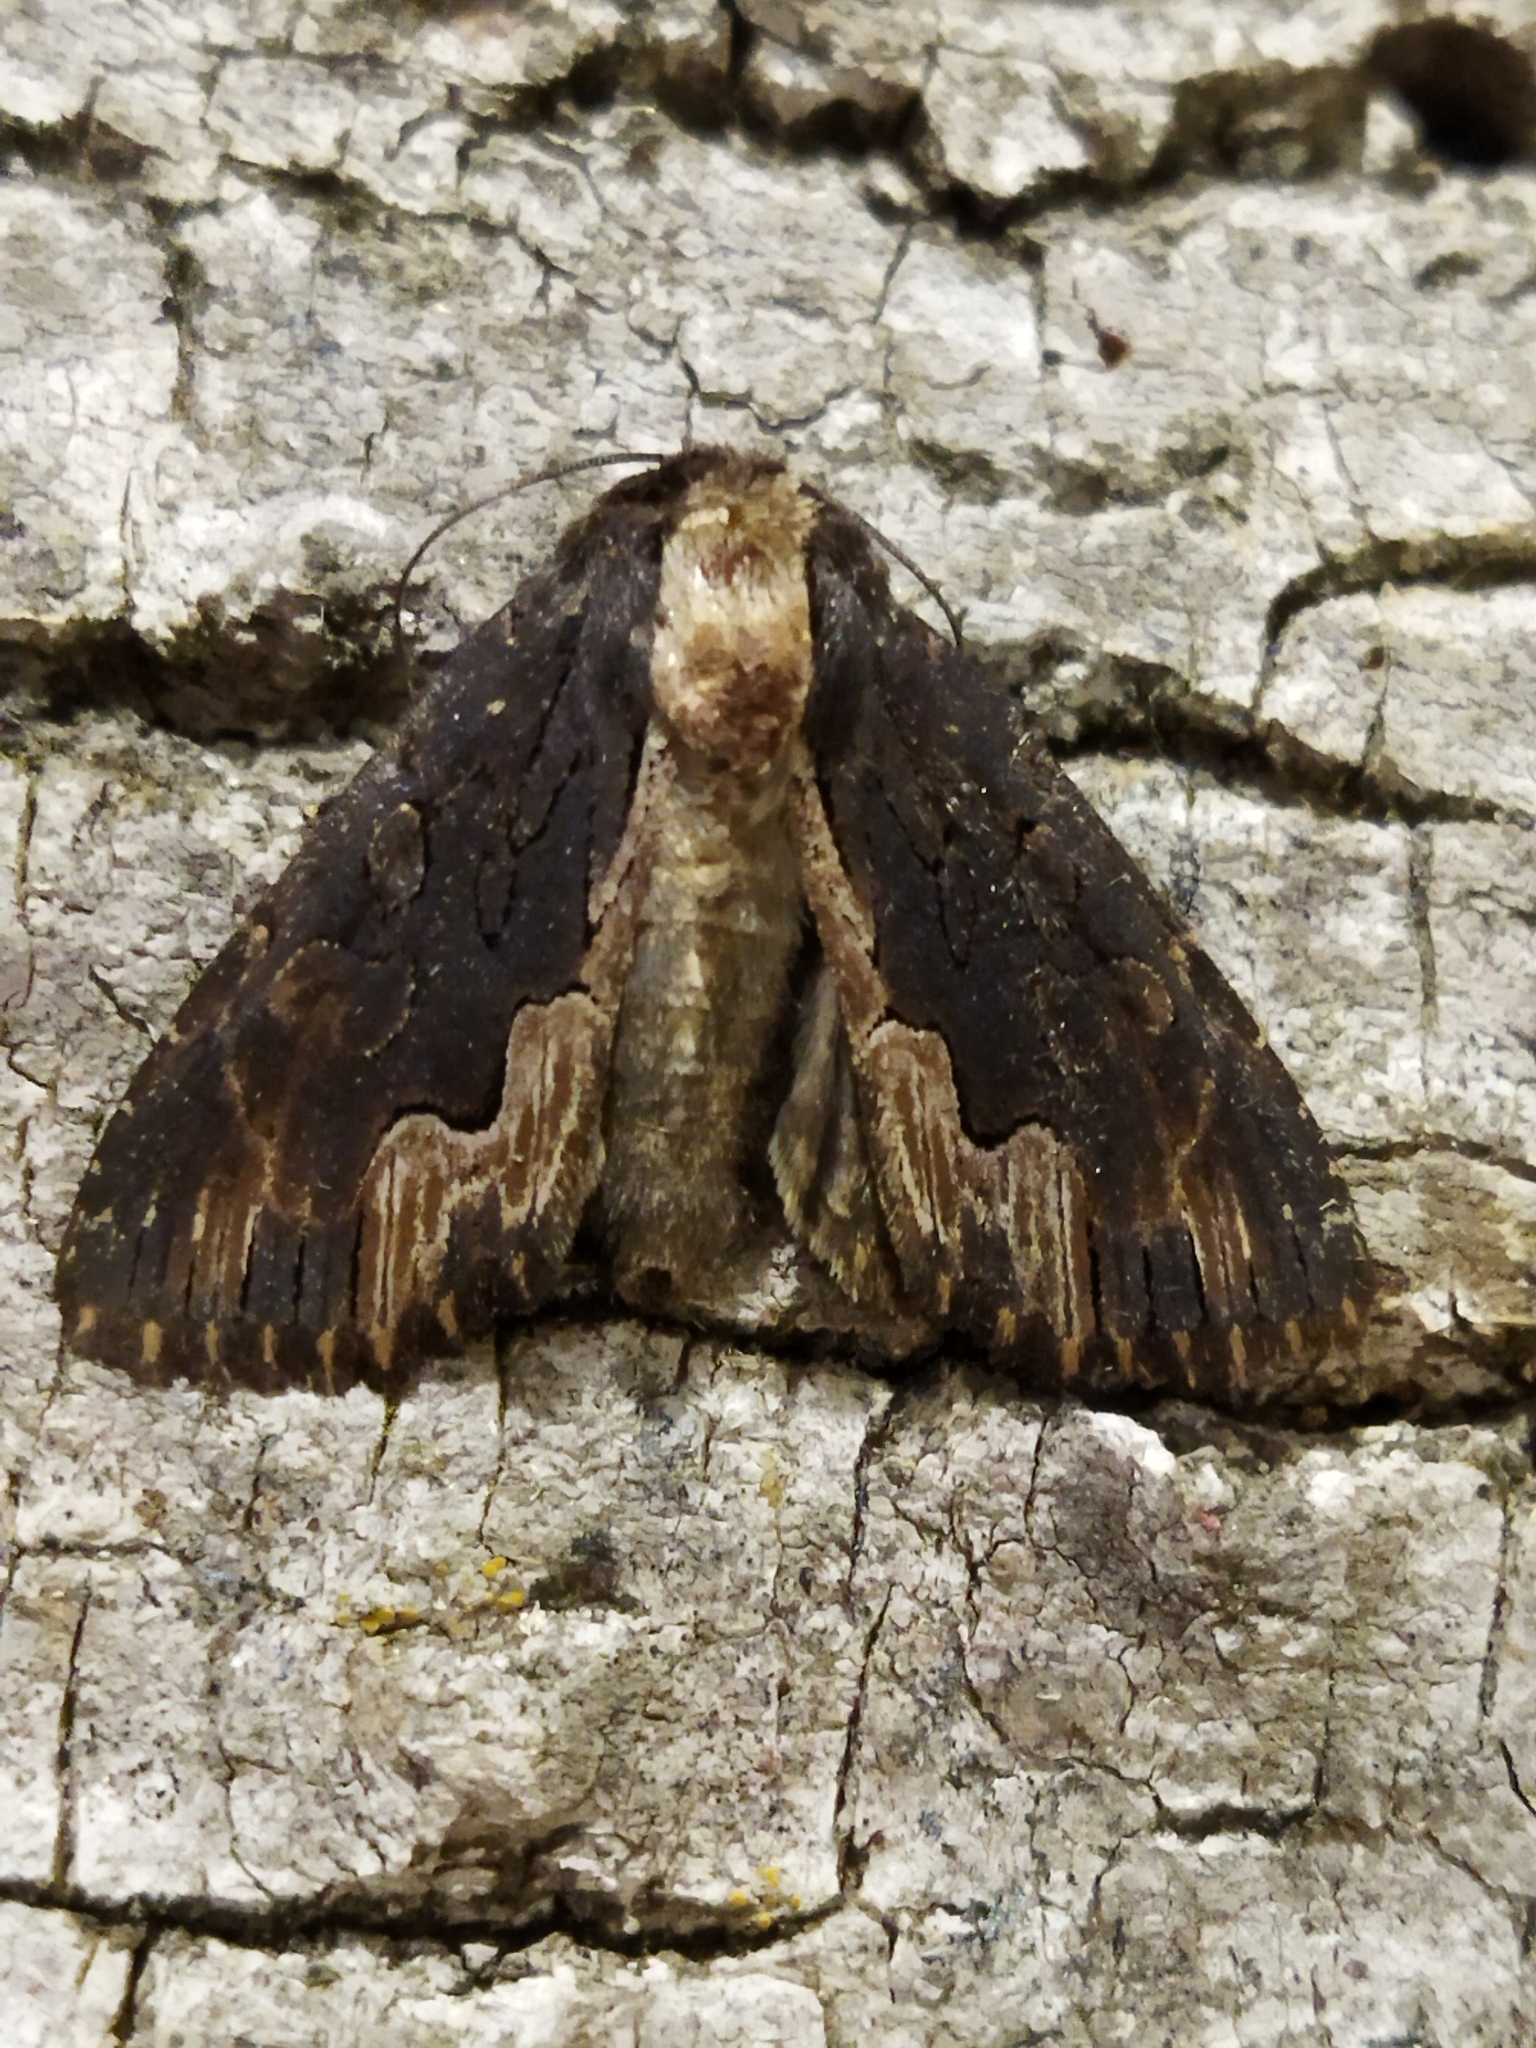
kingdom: Animalia
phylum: Arthropoda
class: Insecta
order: Lepidoptera
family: Noctuidae
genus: Dypterygia
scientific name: Dypterygia scabriuscula
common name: Bird's wing
